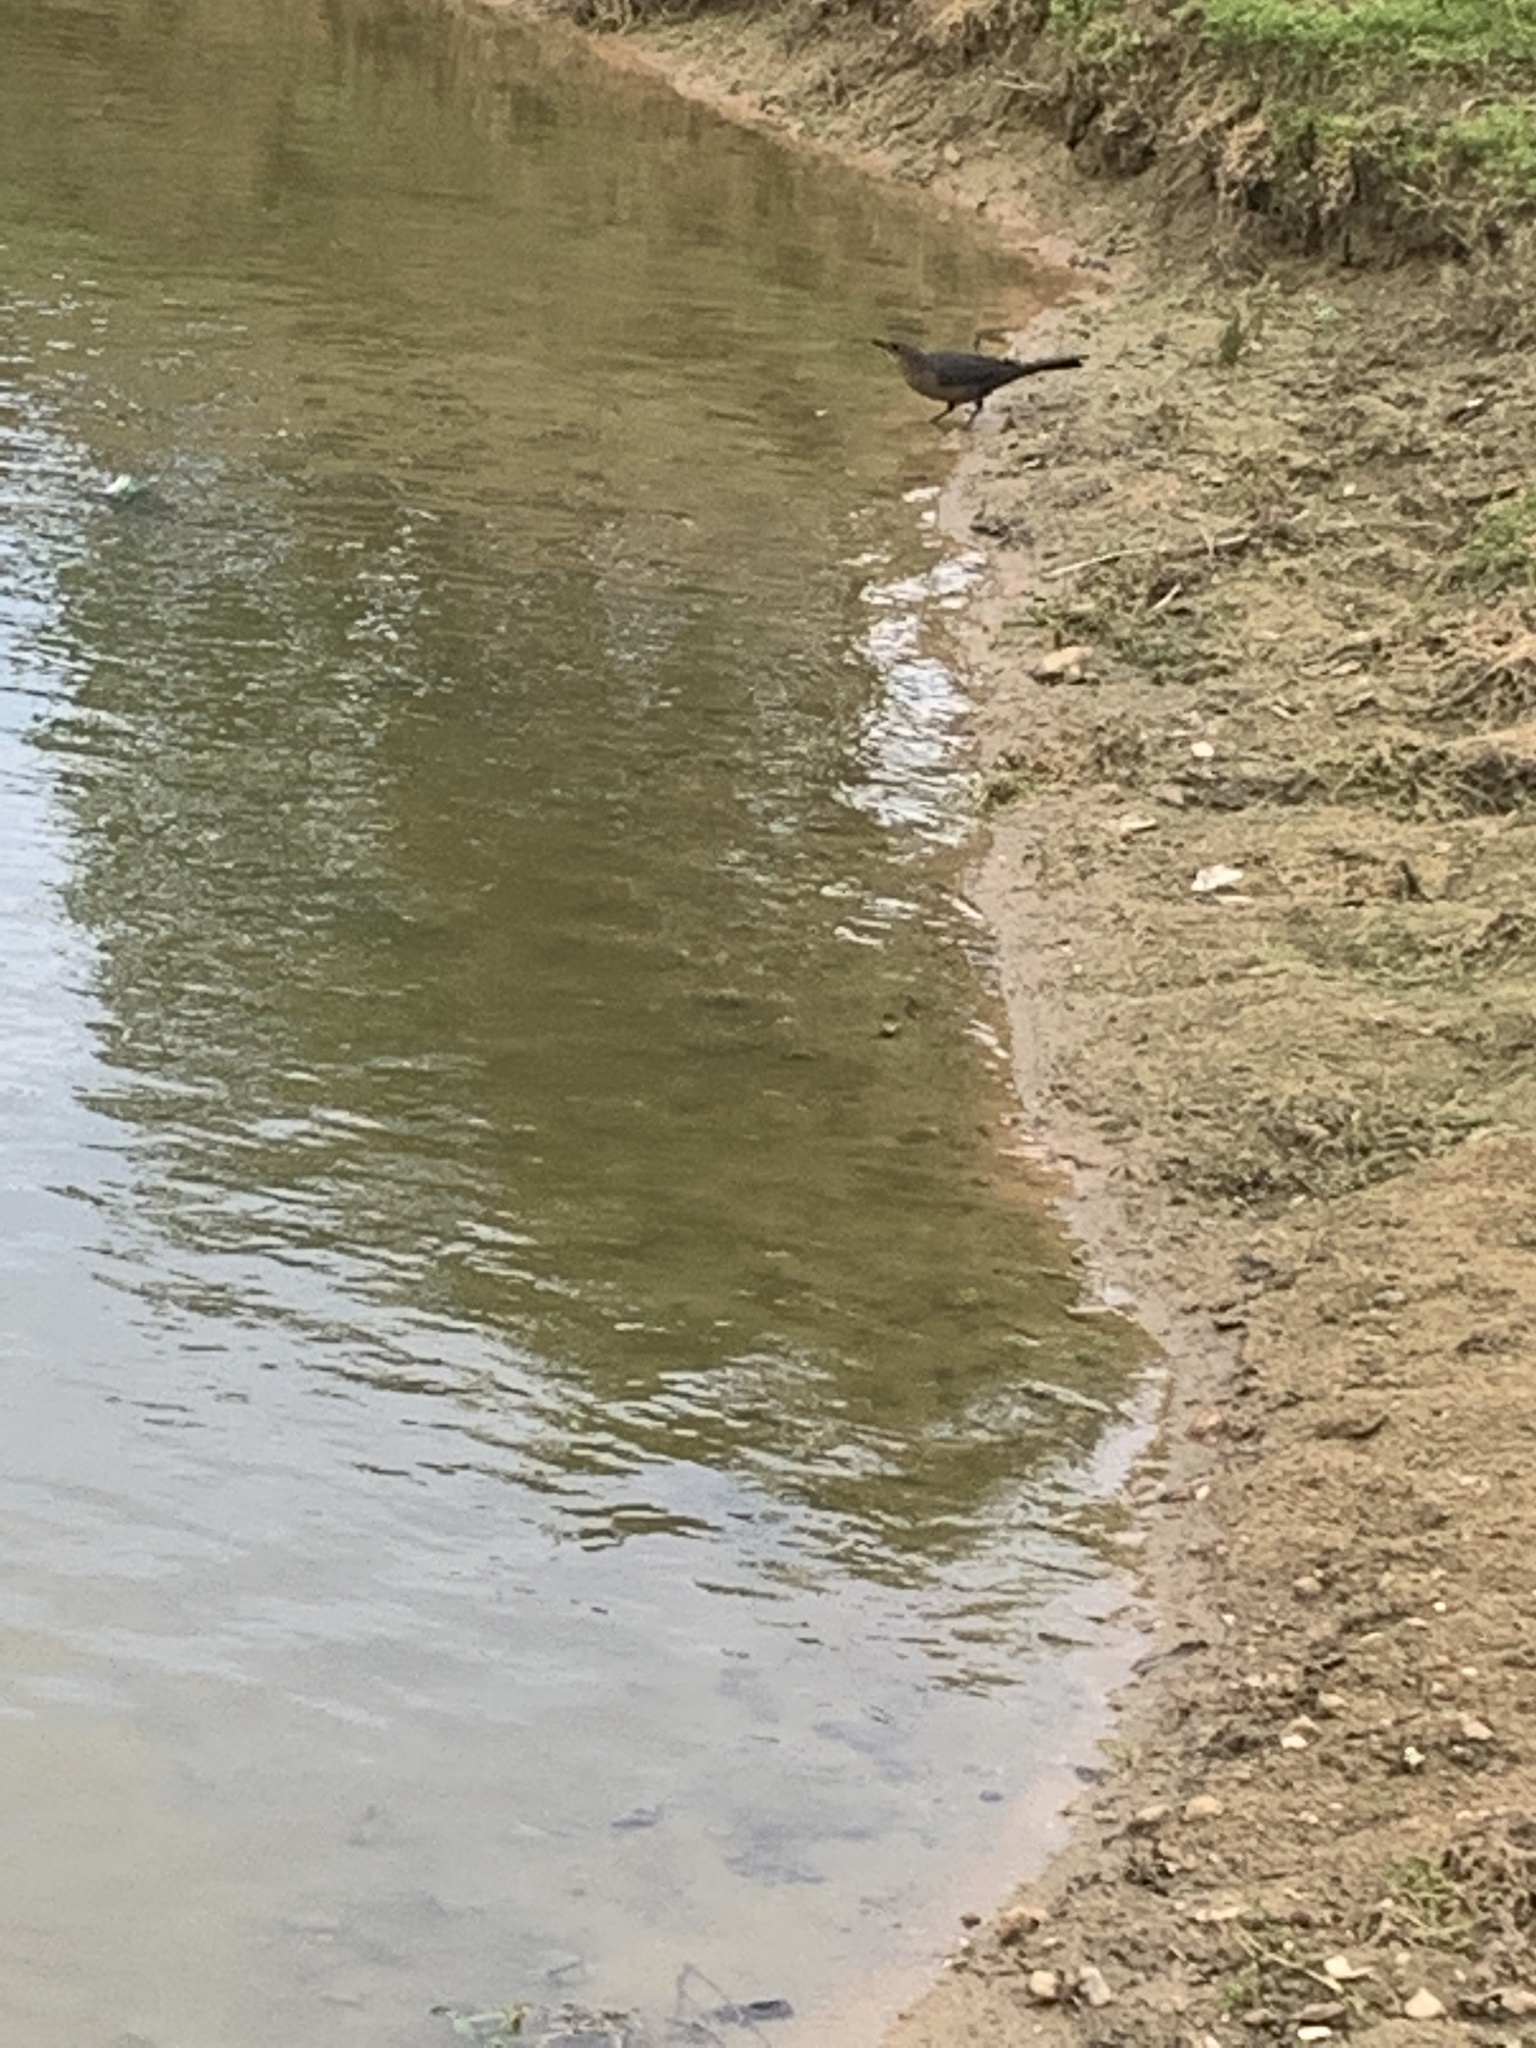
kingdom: Animalia
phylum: Chordata
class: Aves
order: Passeriformes
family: Icteridae
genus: Quiscalus
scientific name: Quiscalus mexicanus
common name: Great-tailed grackle
